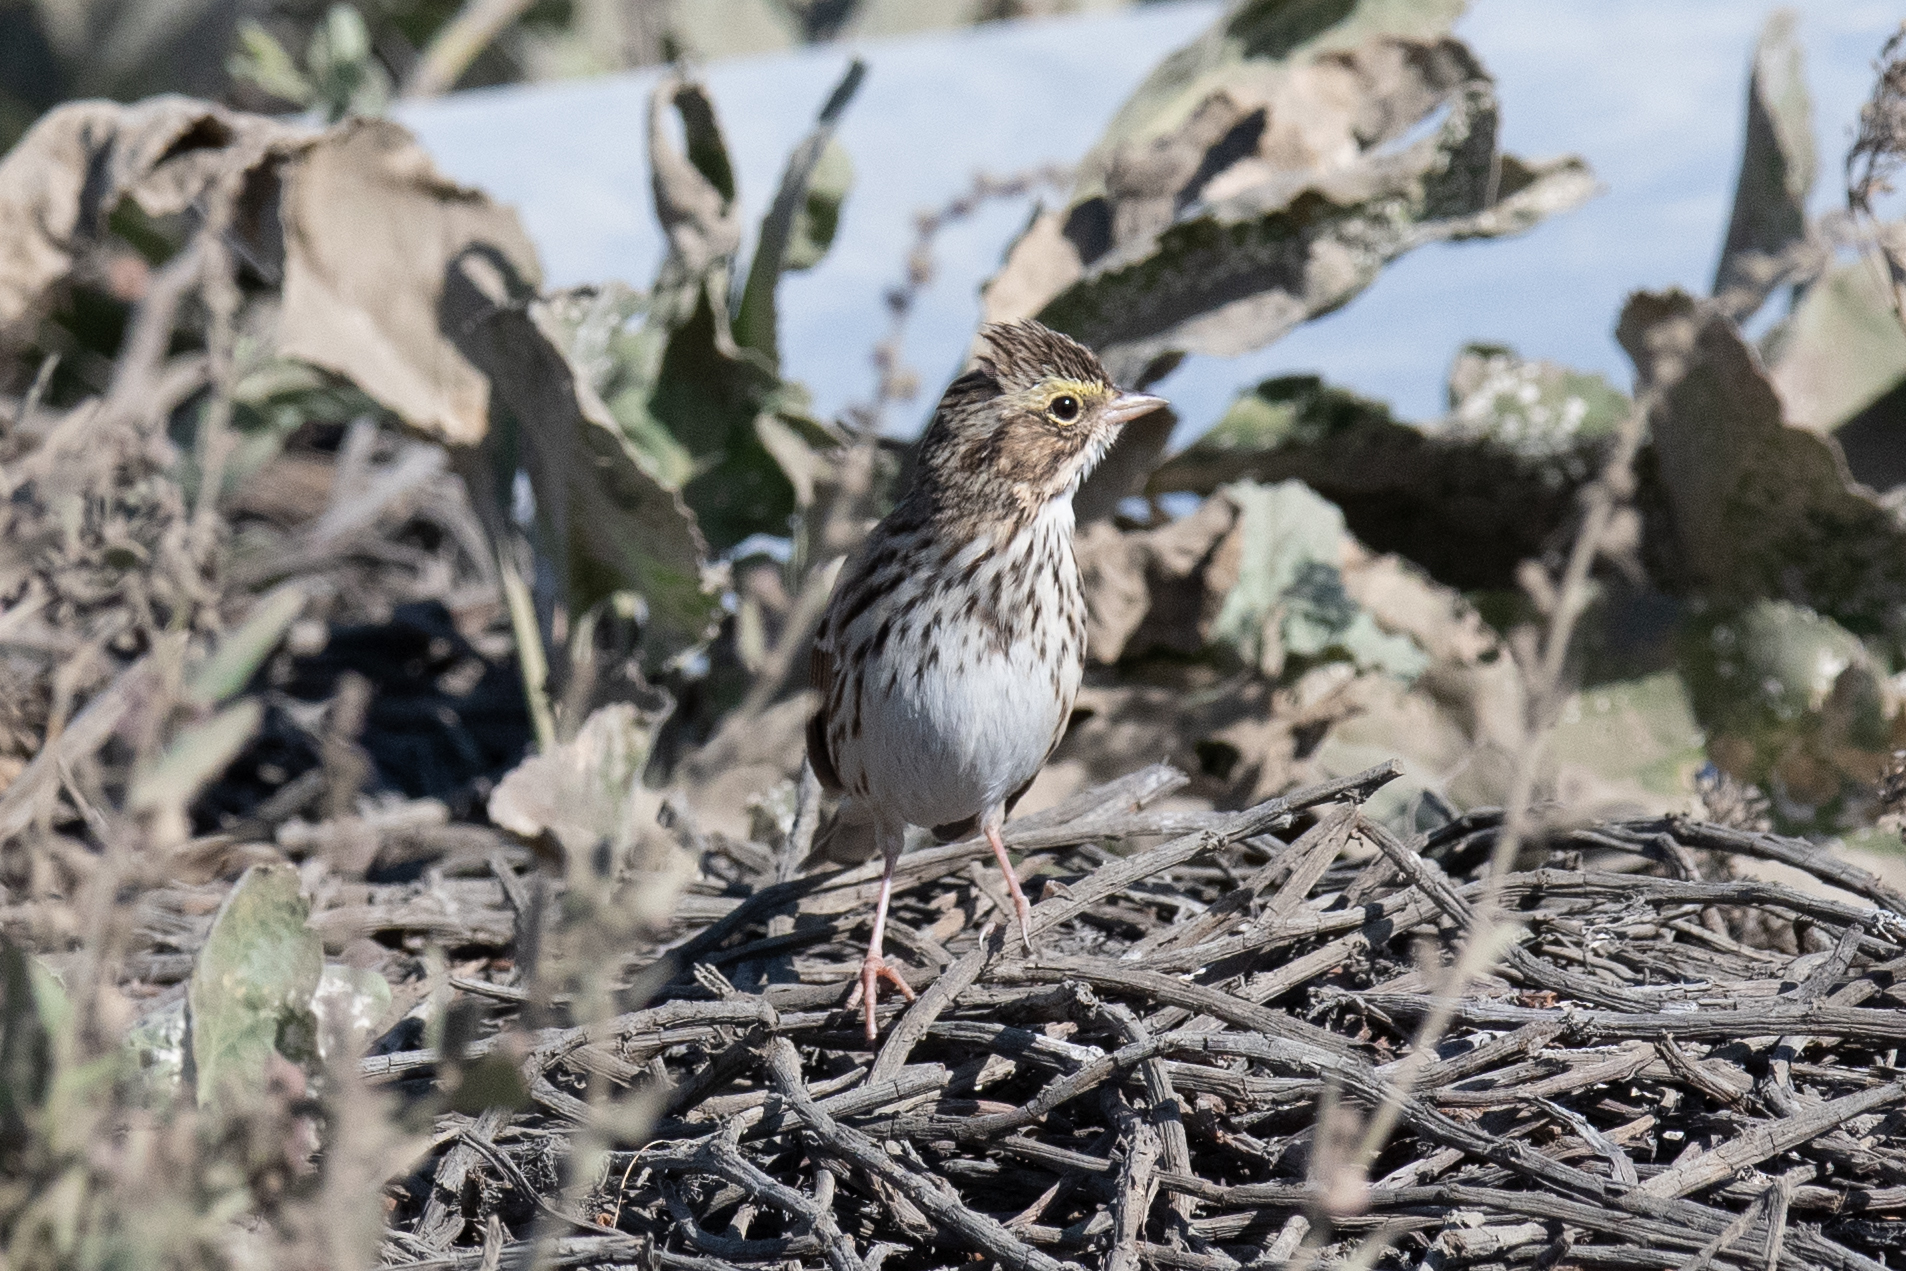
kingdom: Animalia
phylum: Chordata
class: Aves
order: Passeriformes
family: Passerellidae
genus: Passerculus
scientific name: Passerculus sandwichensis
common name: Savannah sparrow
